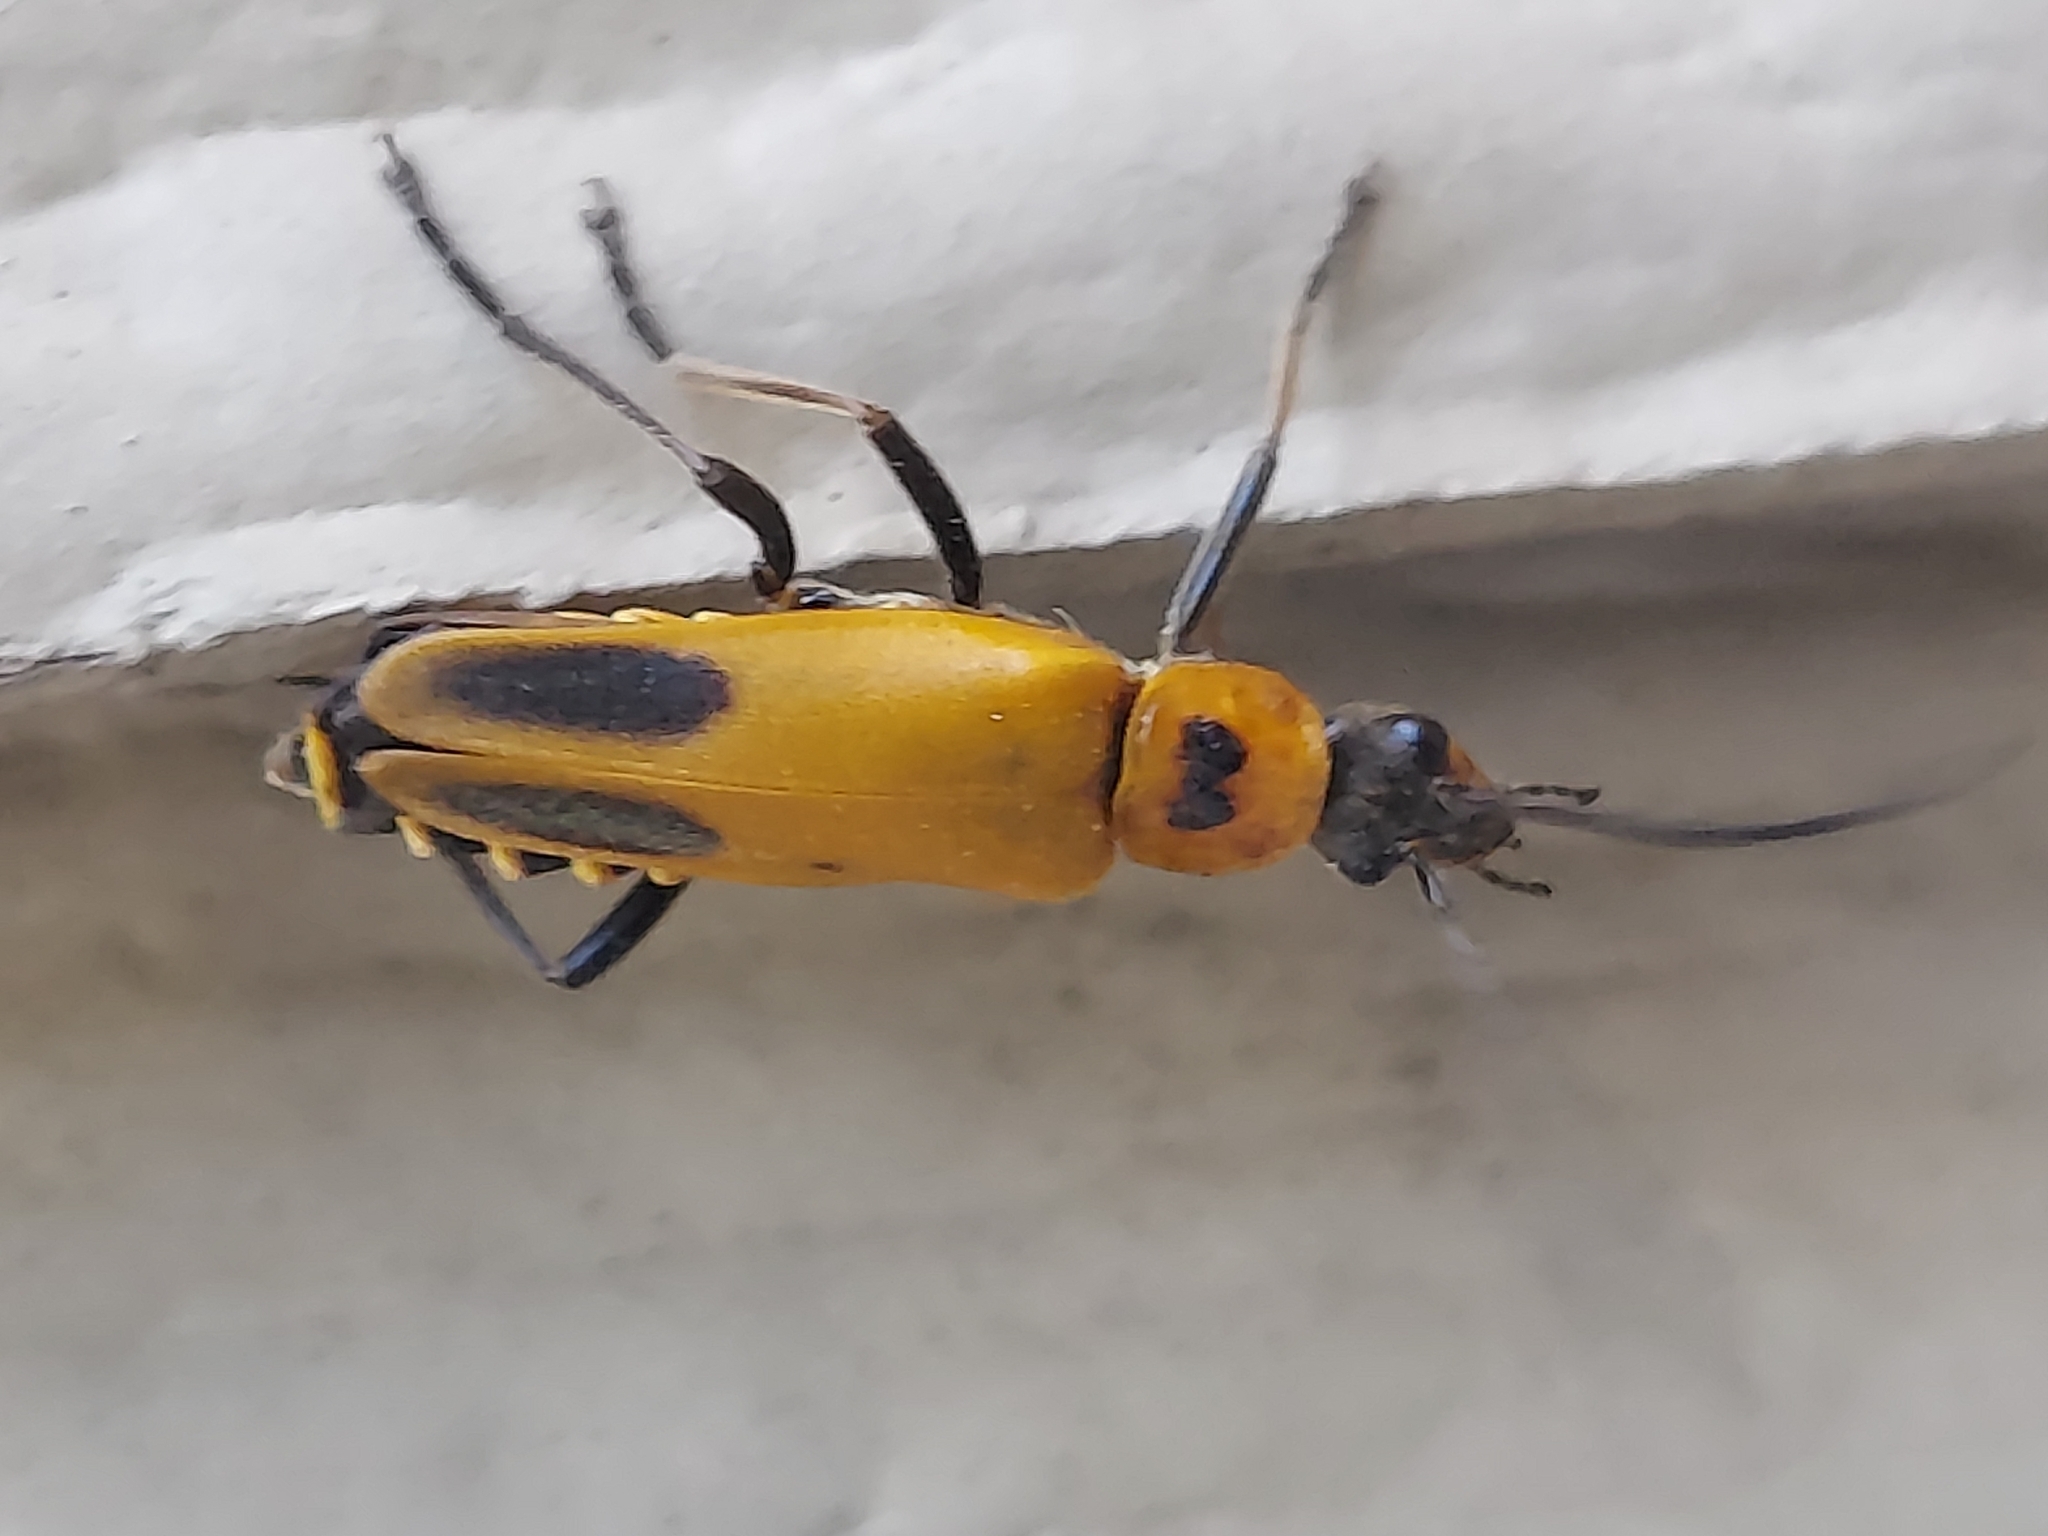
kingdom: Animalia
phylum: Arthropoda
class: Insecta
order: Coleoptera
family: Cantharidae
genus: Chauliognathus
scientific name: Chauliognathus pensylvanicus
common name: Goldenrod soldier beetle
